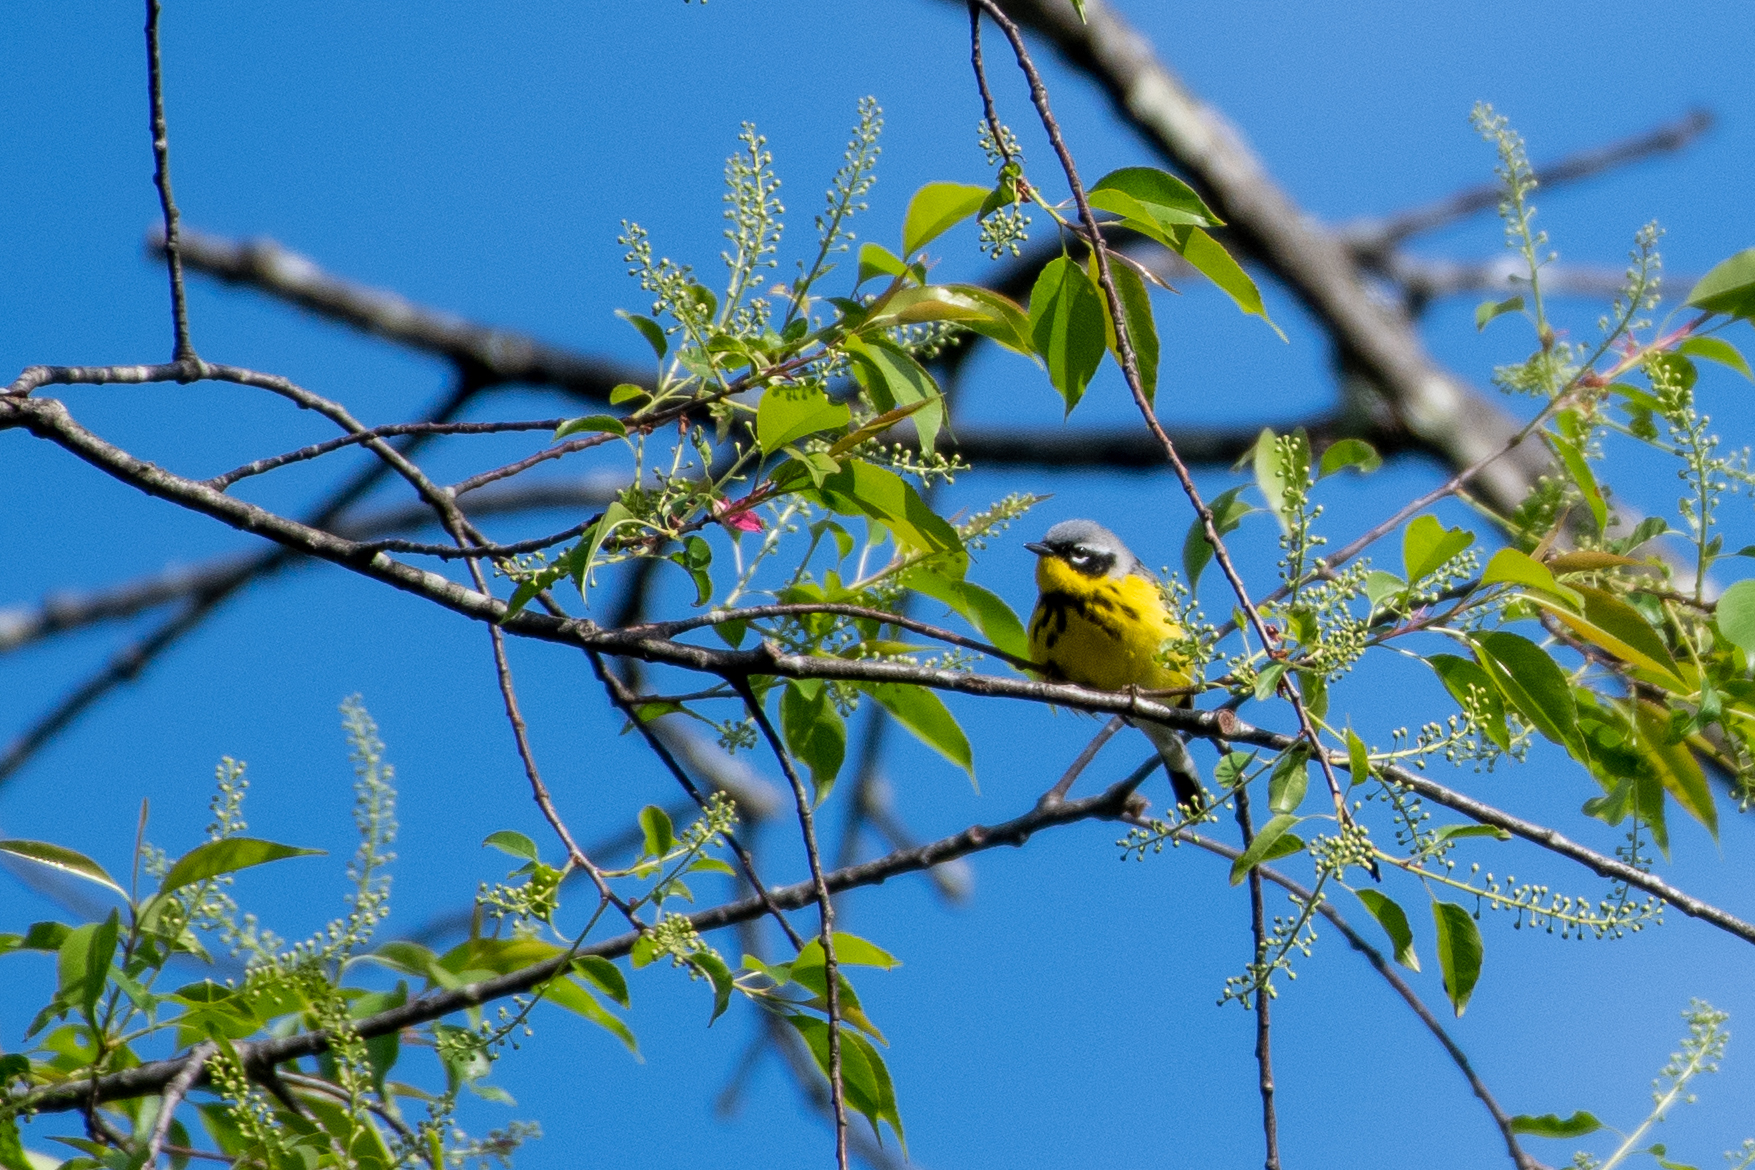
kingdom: Animalia
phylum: Chordata
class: Aves
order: Passeriformes
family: Parulidae
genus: Setophaga
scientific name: Setophaga magnolia
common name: Magnolia warbler
